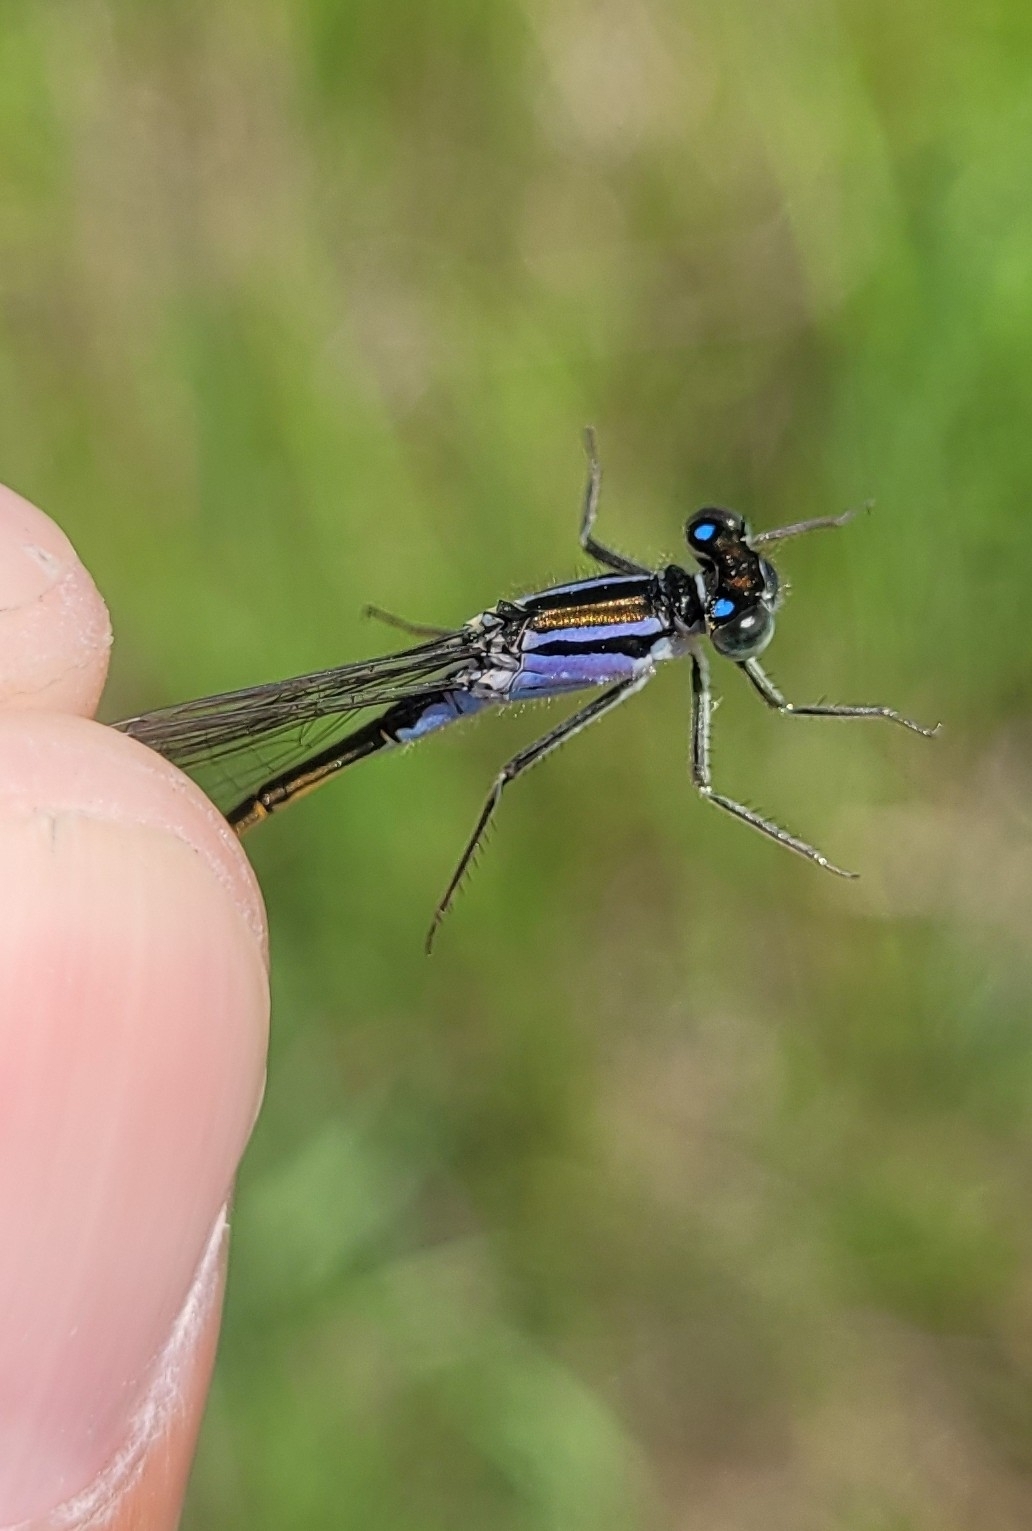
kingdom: Animalia
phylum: Arthropoda
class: Insecta
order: Odonata
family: Coenagrionidae
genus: Ischnura
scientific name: Ischnura elegans
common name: Blue-tailed damselfly
